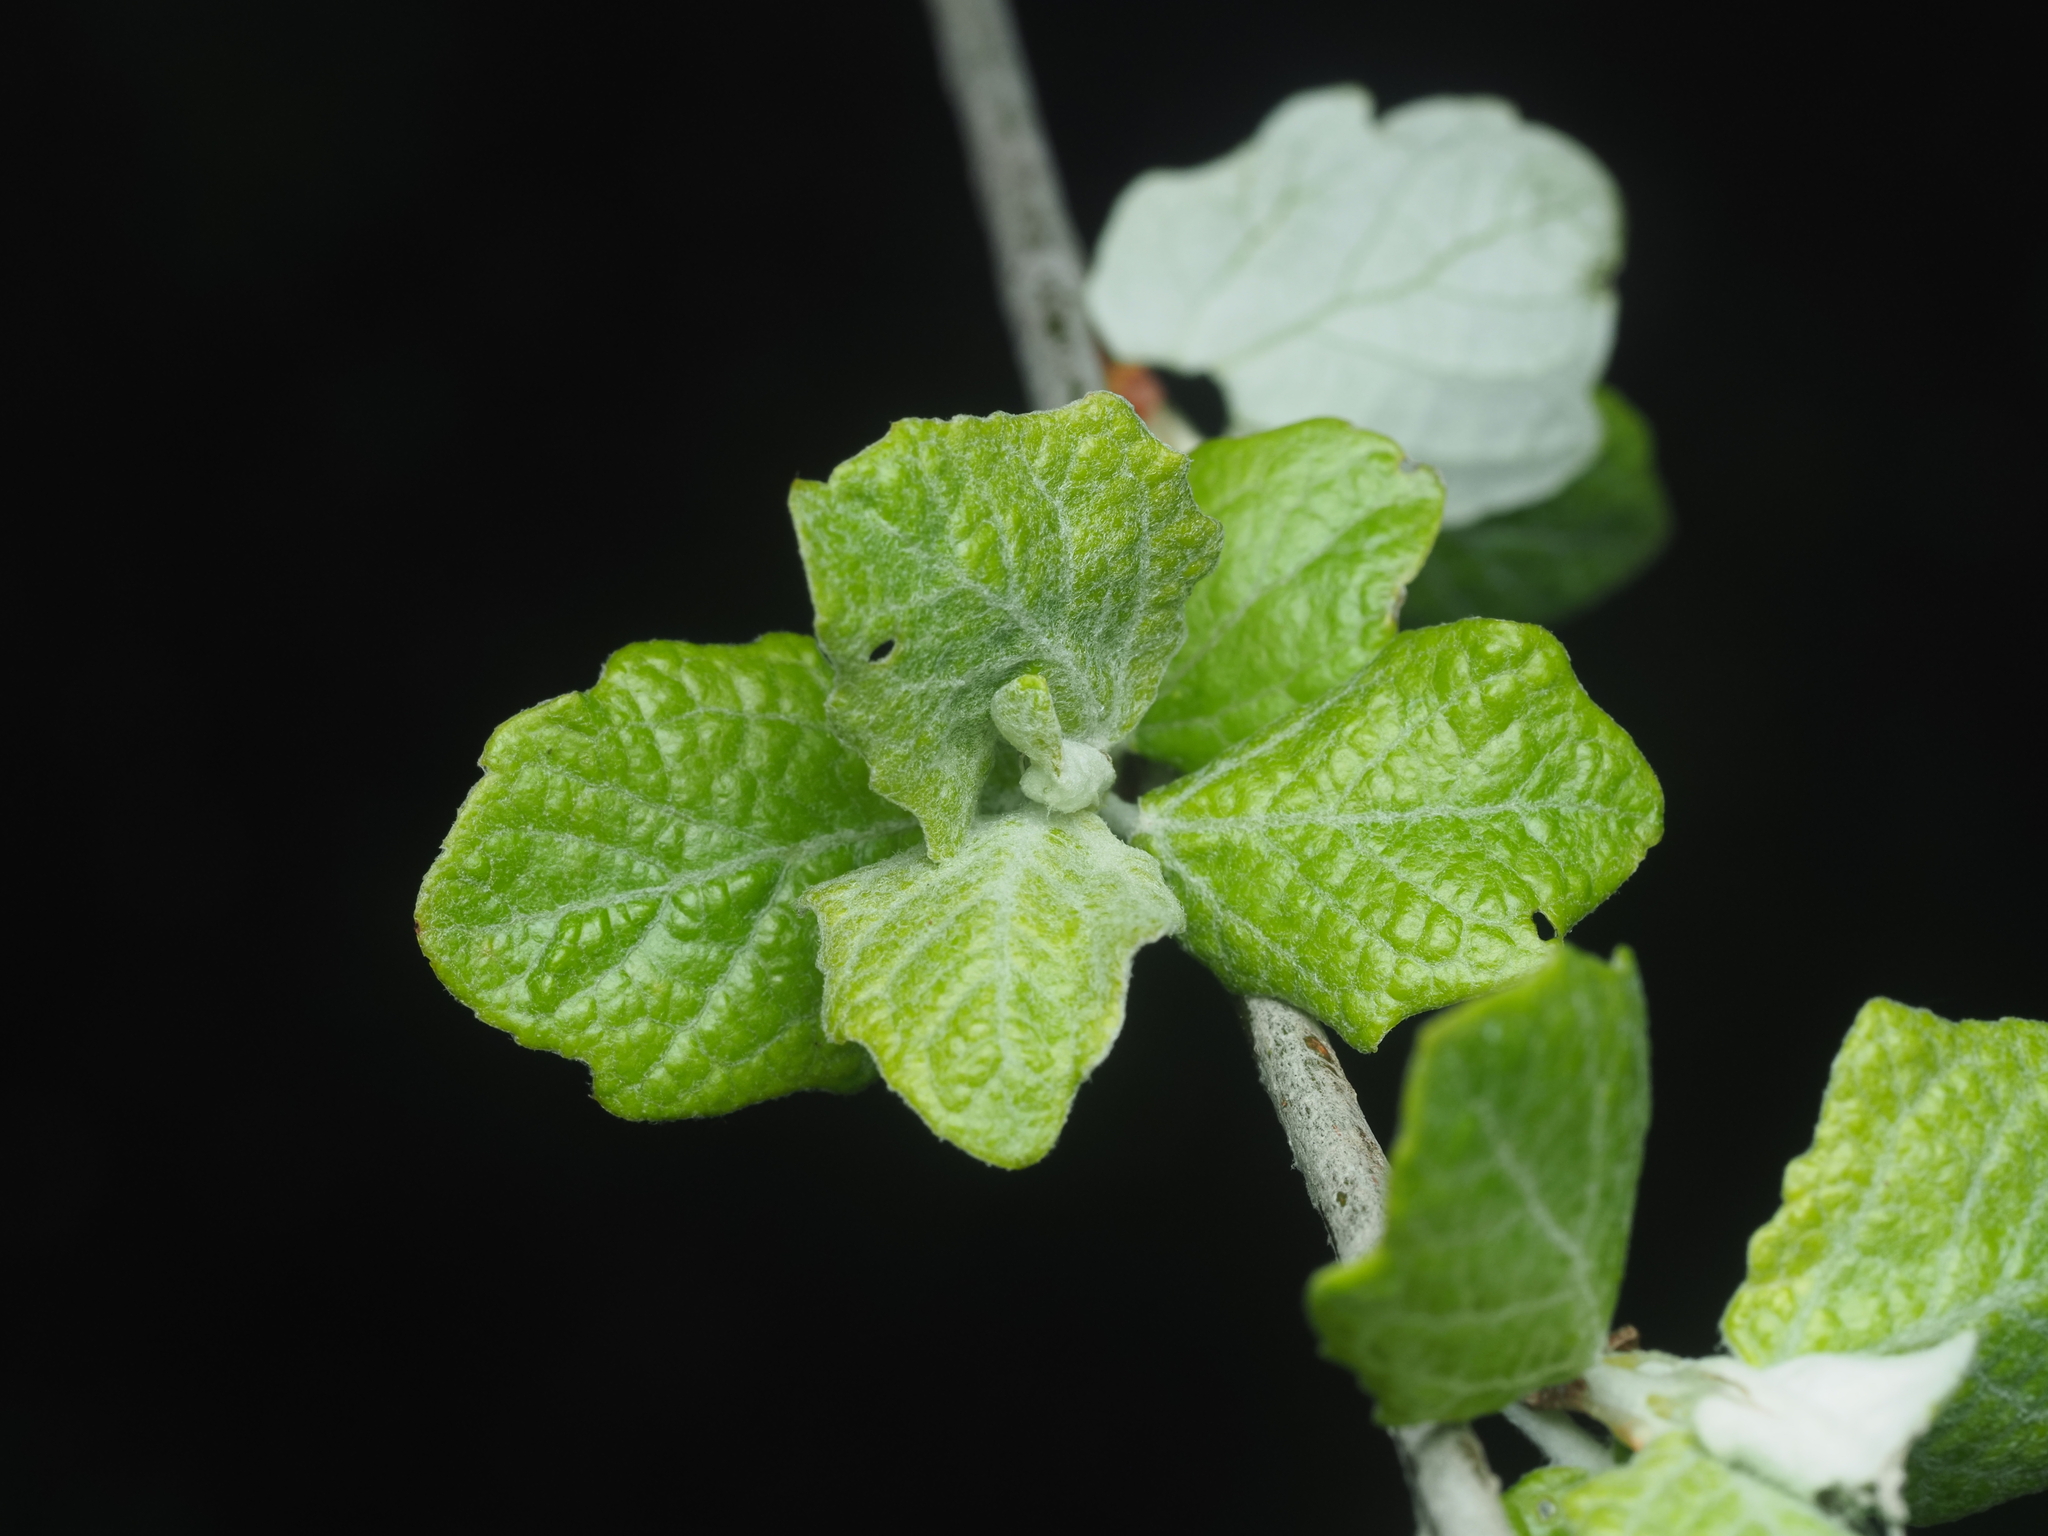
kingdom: Plantae
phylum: Tracheophyta
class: Magnoliopsida
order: Malpighiales
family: Salicaceae
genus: Populus
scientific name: Populus alba
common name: White poplar
